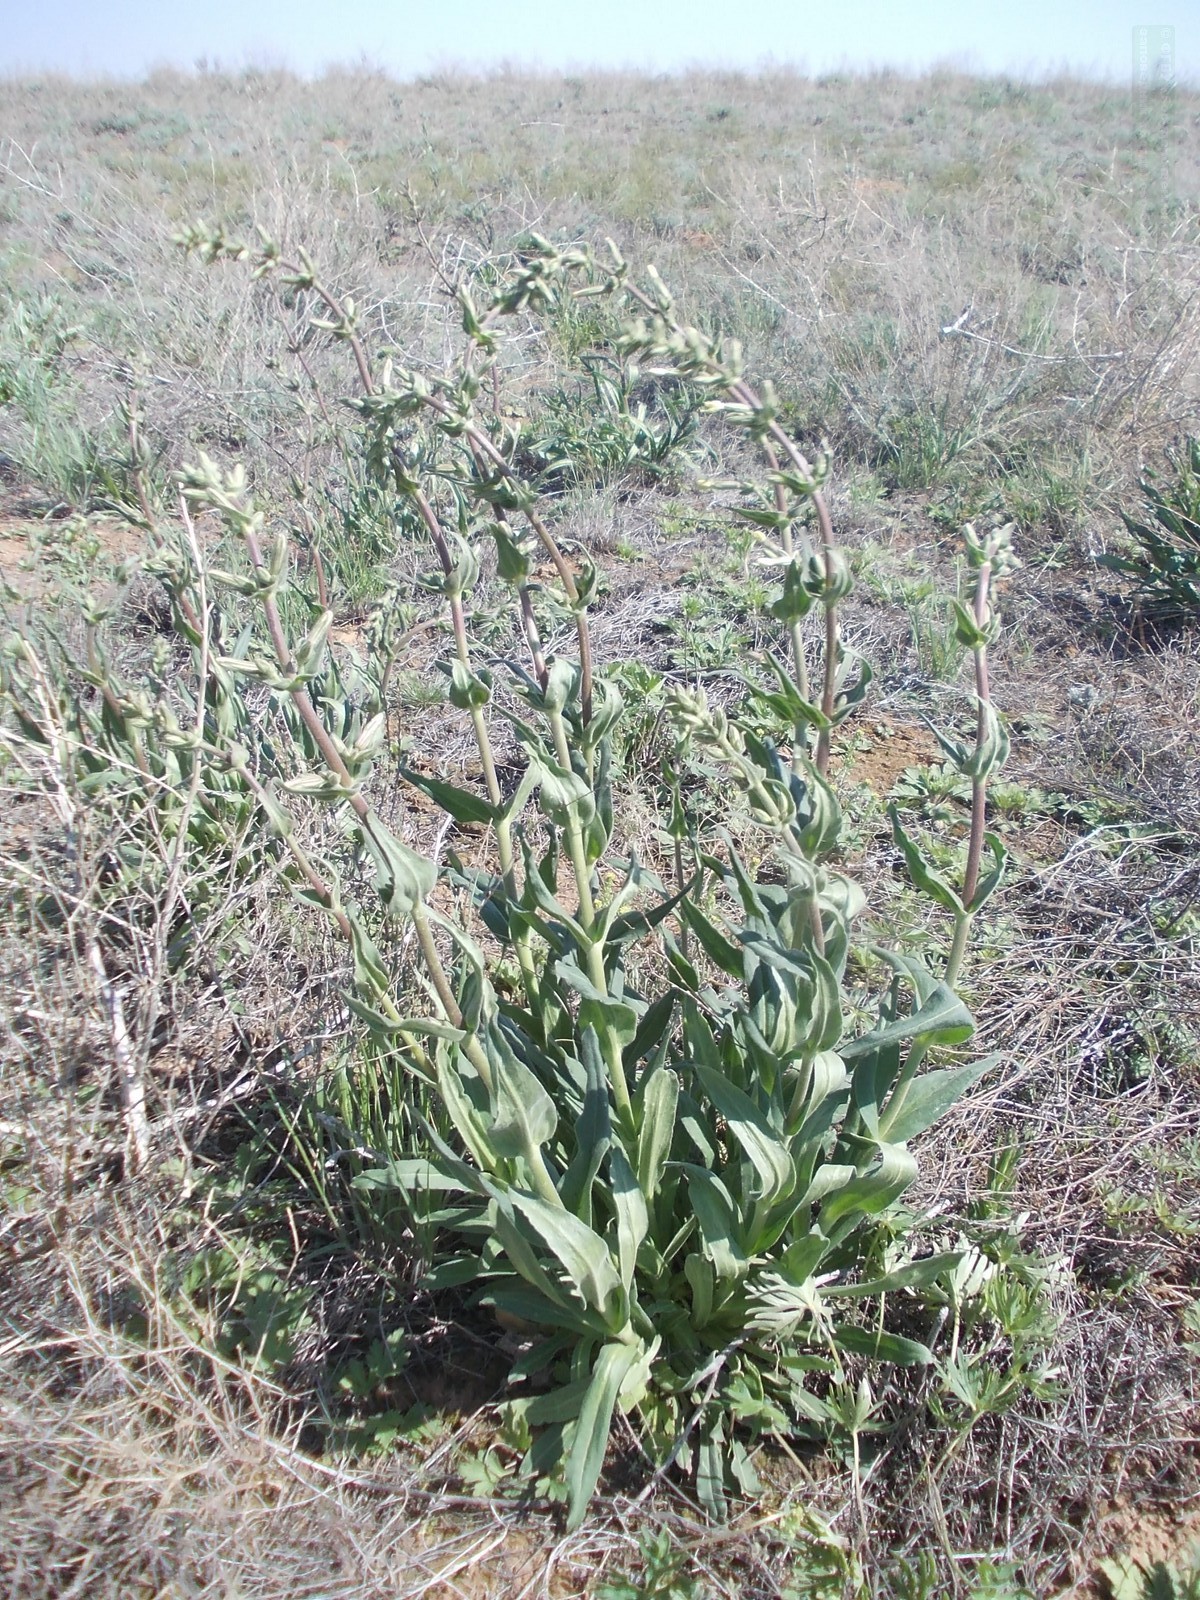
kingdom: Plantae
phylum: Tracheophyta
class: Magnoliopsida
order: Caryophyllales
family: Caryophyllaceae
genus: Silene
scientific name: Silene viscosa
